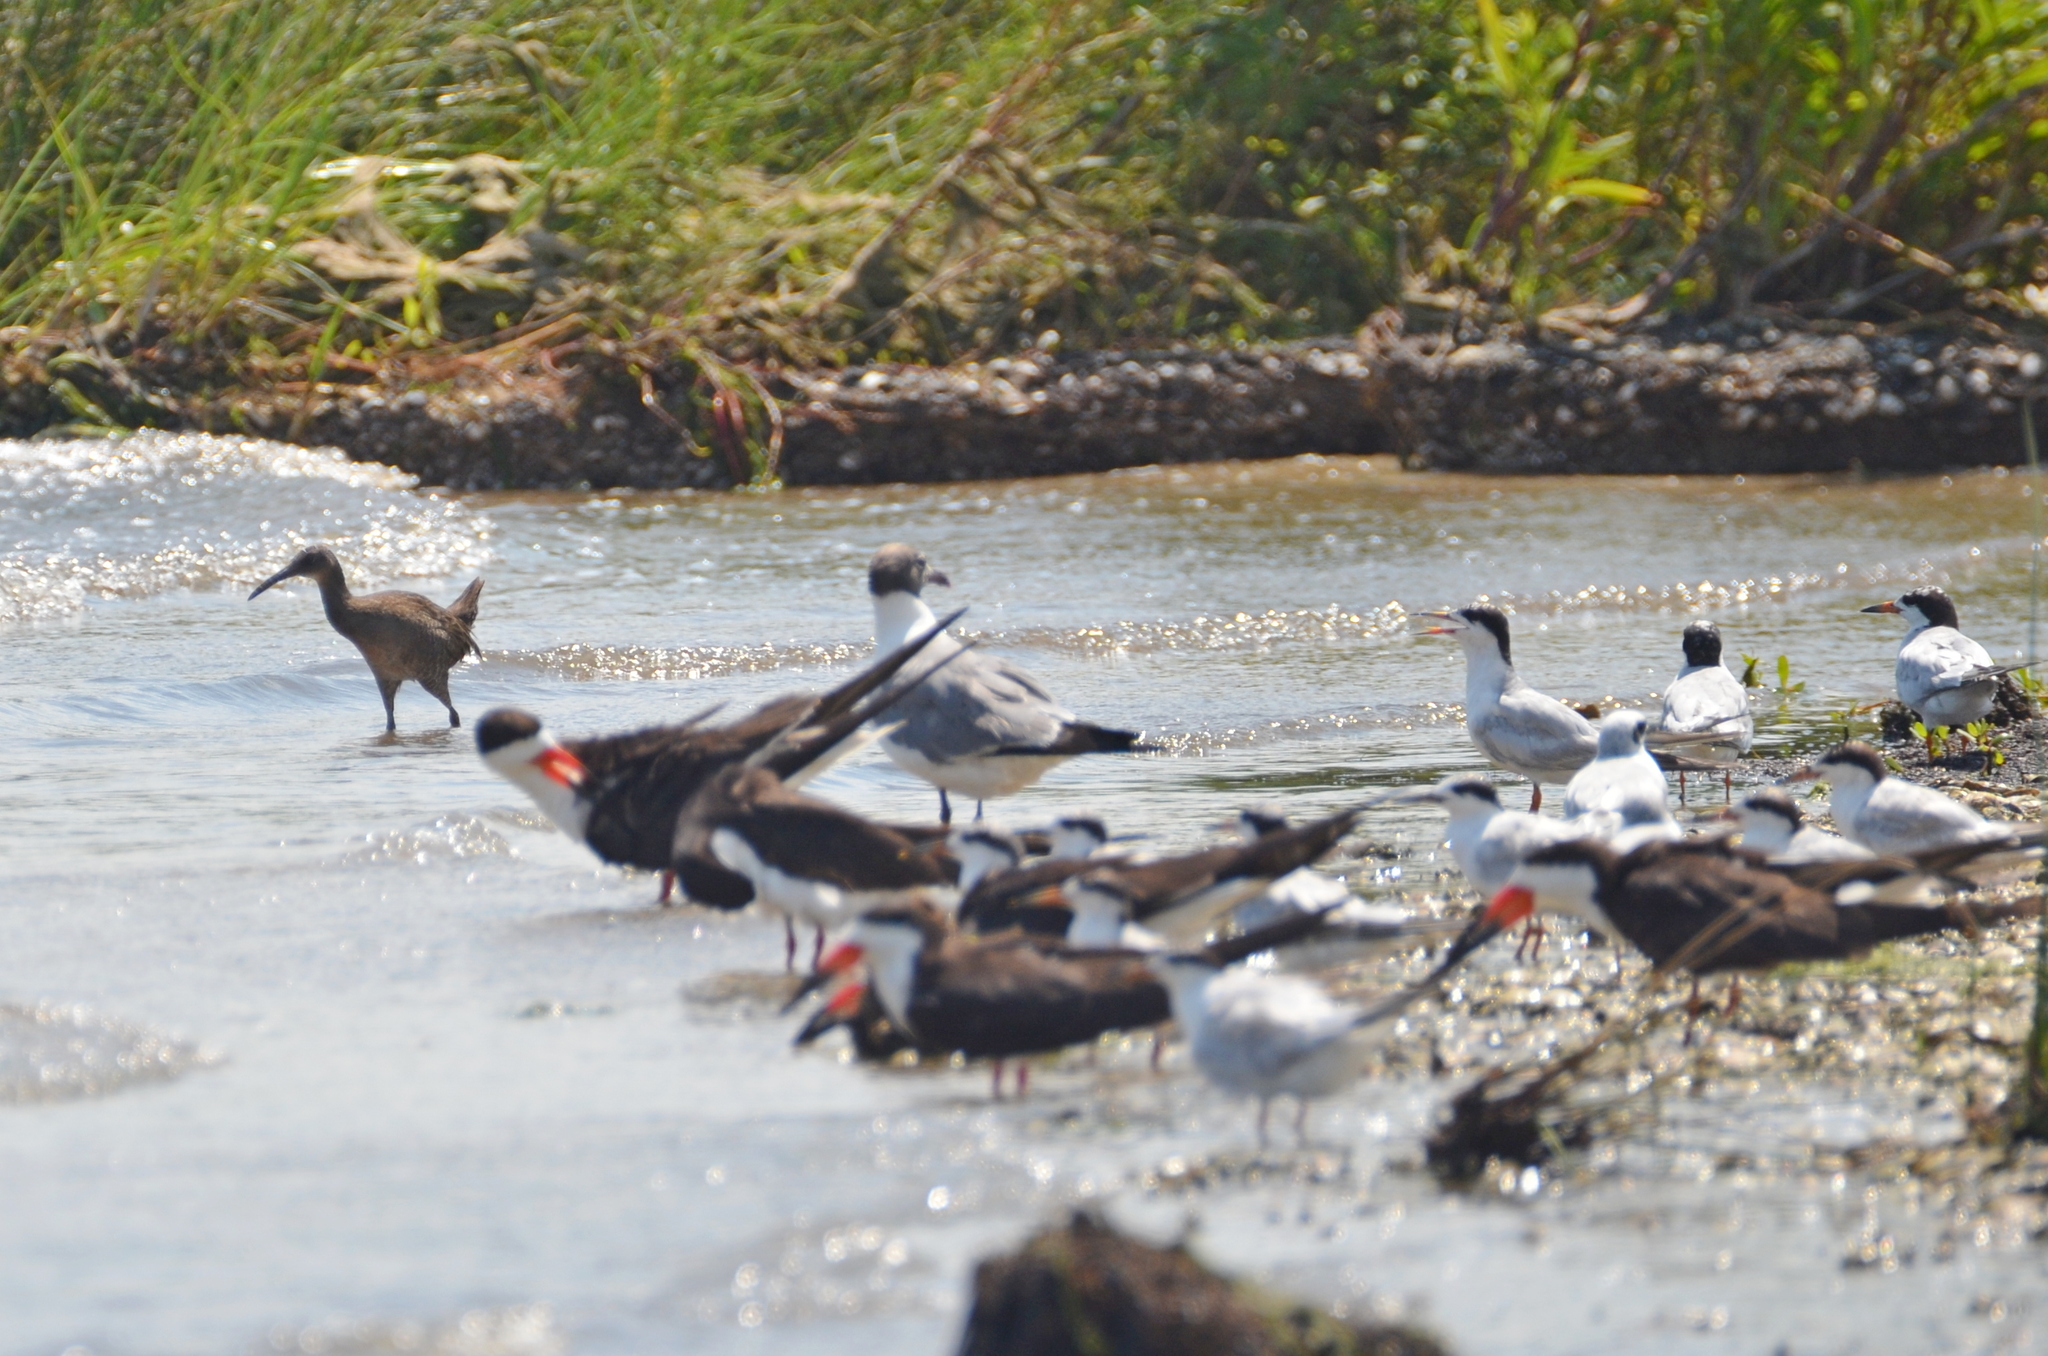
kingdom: Animalia
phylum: Chordata
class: Aves
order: Gruiformes
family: Rallidae
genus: Rallus
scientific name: Rallus crepitans
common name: Clapper rail
